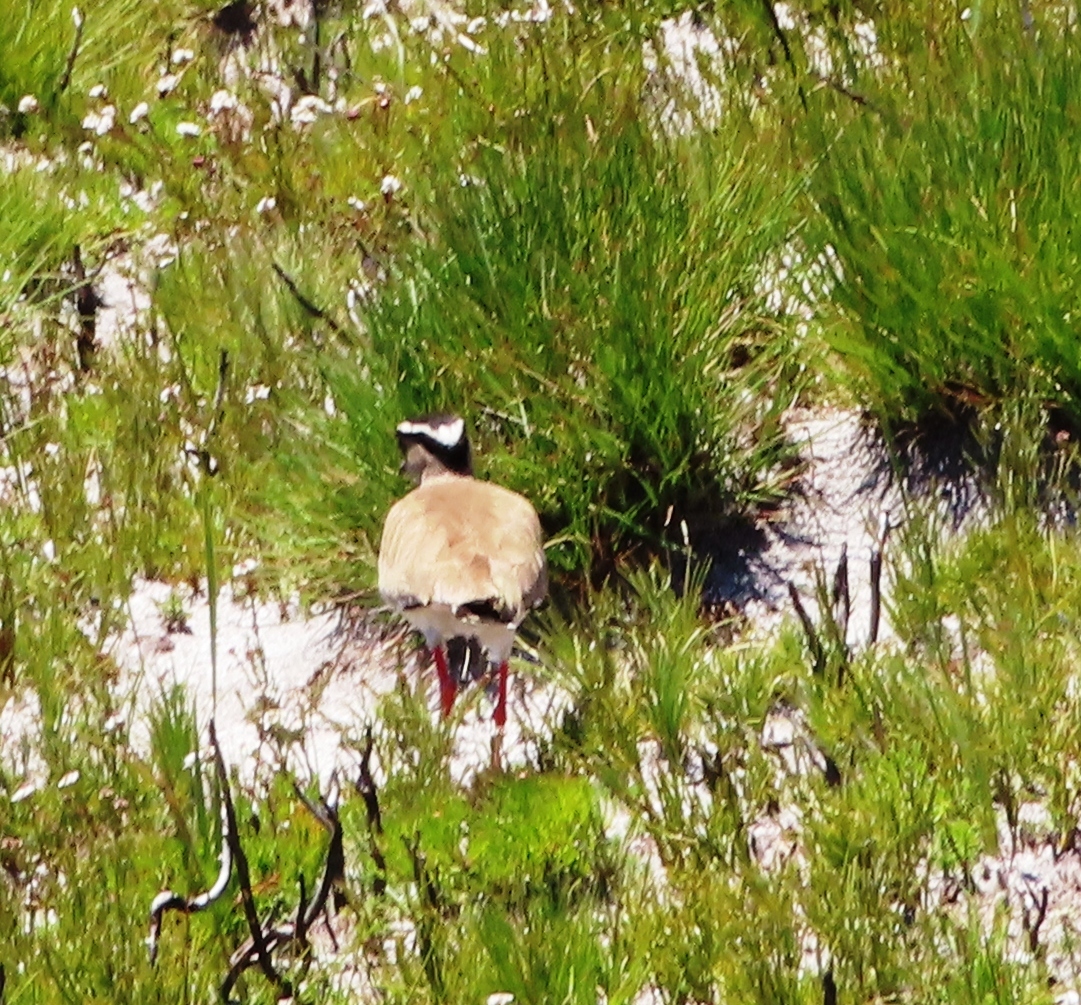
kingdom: Animalia
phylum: Chordata
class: Aves
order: Charadriiformes
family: Charadriidae
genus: Vanellus
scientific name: Vanellus coronatus
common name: Crowned lapwing
